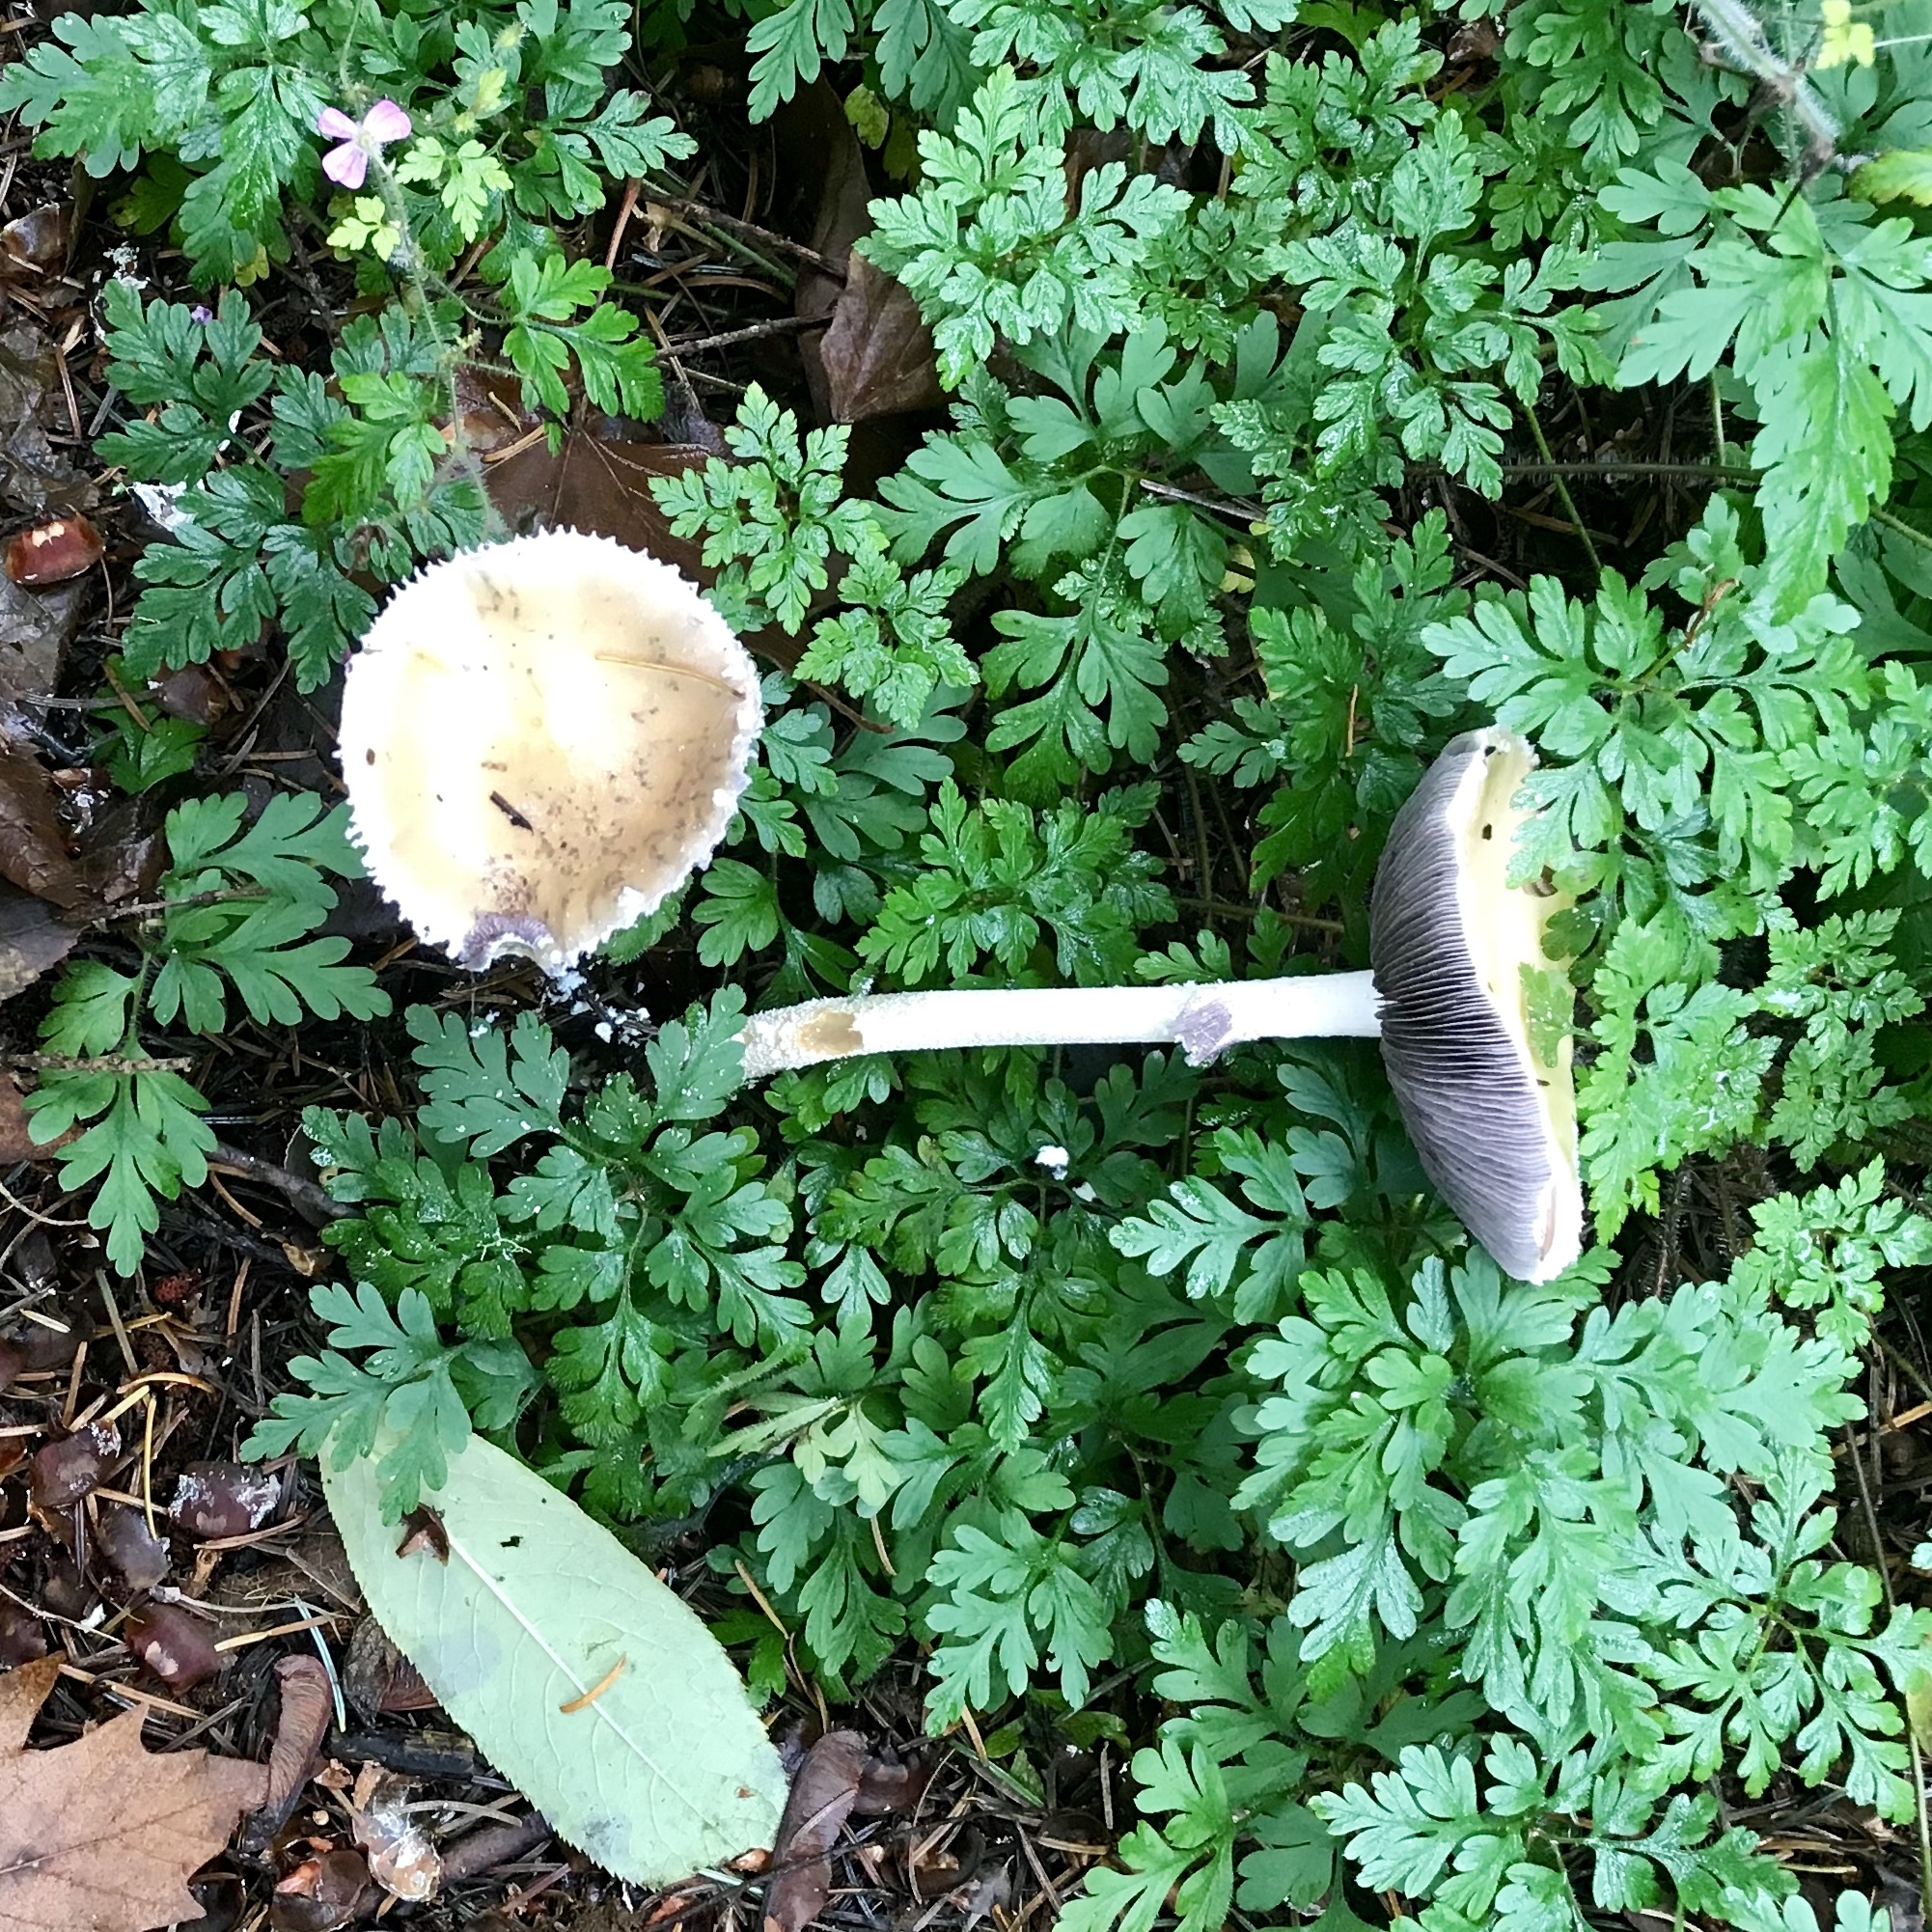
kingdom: Fungi
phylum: Basidiomycota
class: Agaricomycetes
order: Agaricales
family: Strophariaceae
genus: Stropharia
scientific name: Stropharia ambigua
